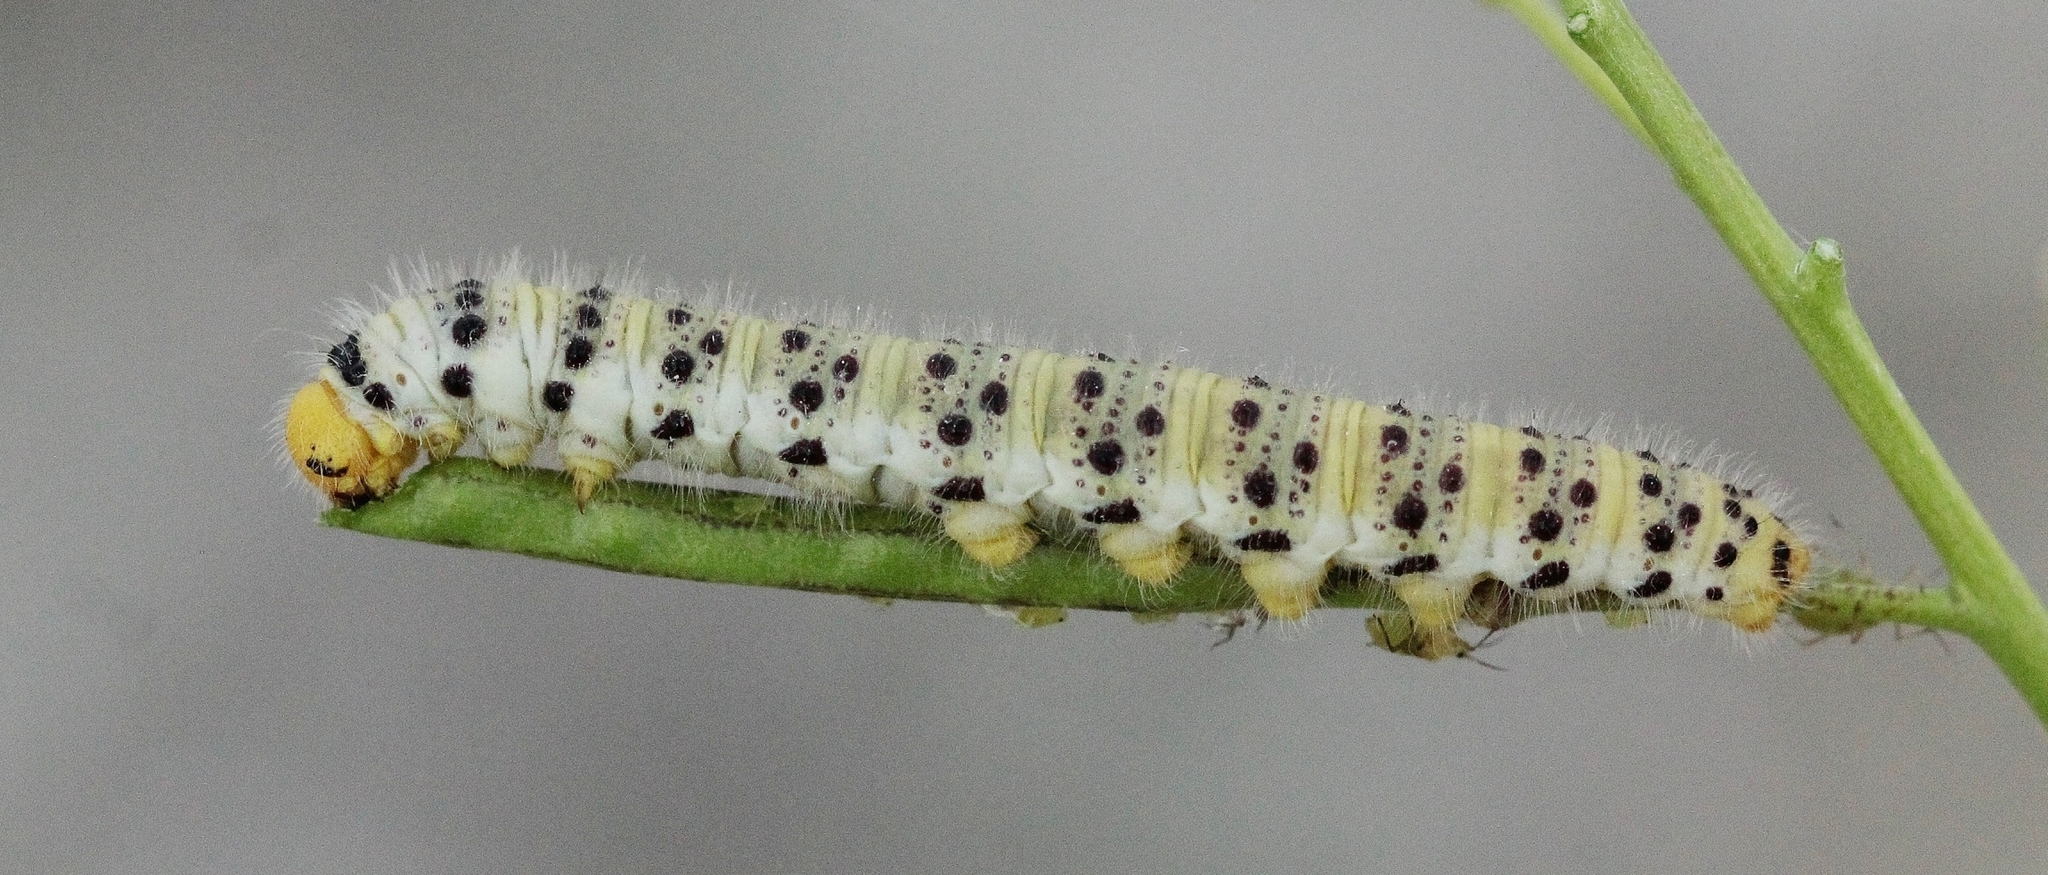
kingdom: Animalia
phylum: Arthropoda
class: Insecta
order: Lepidoptera
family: Pieridae
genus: Zegris
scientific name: Zegris eupheme
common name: Sooty orange tip
